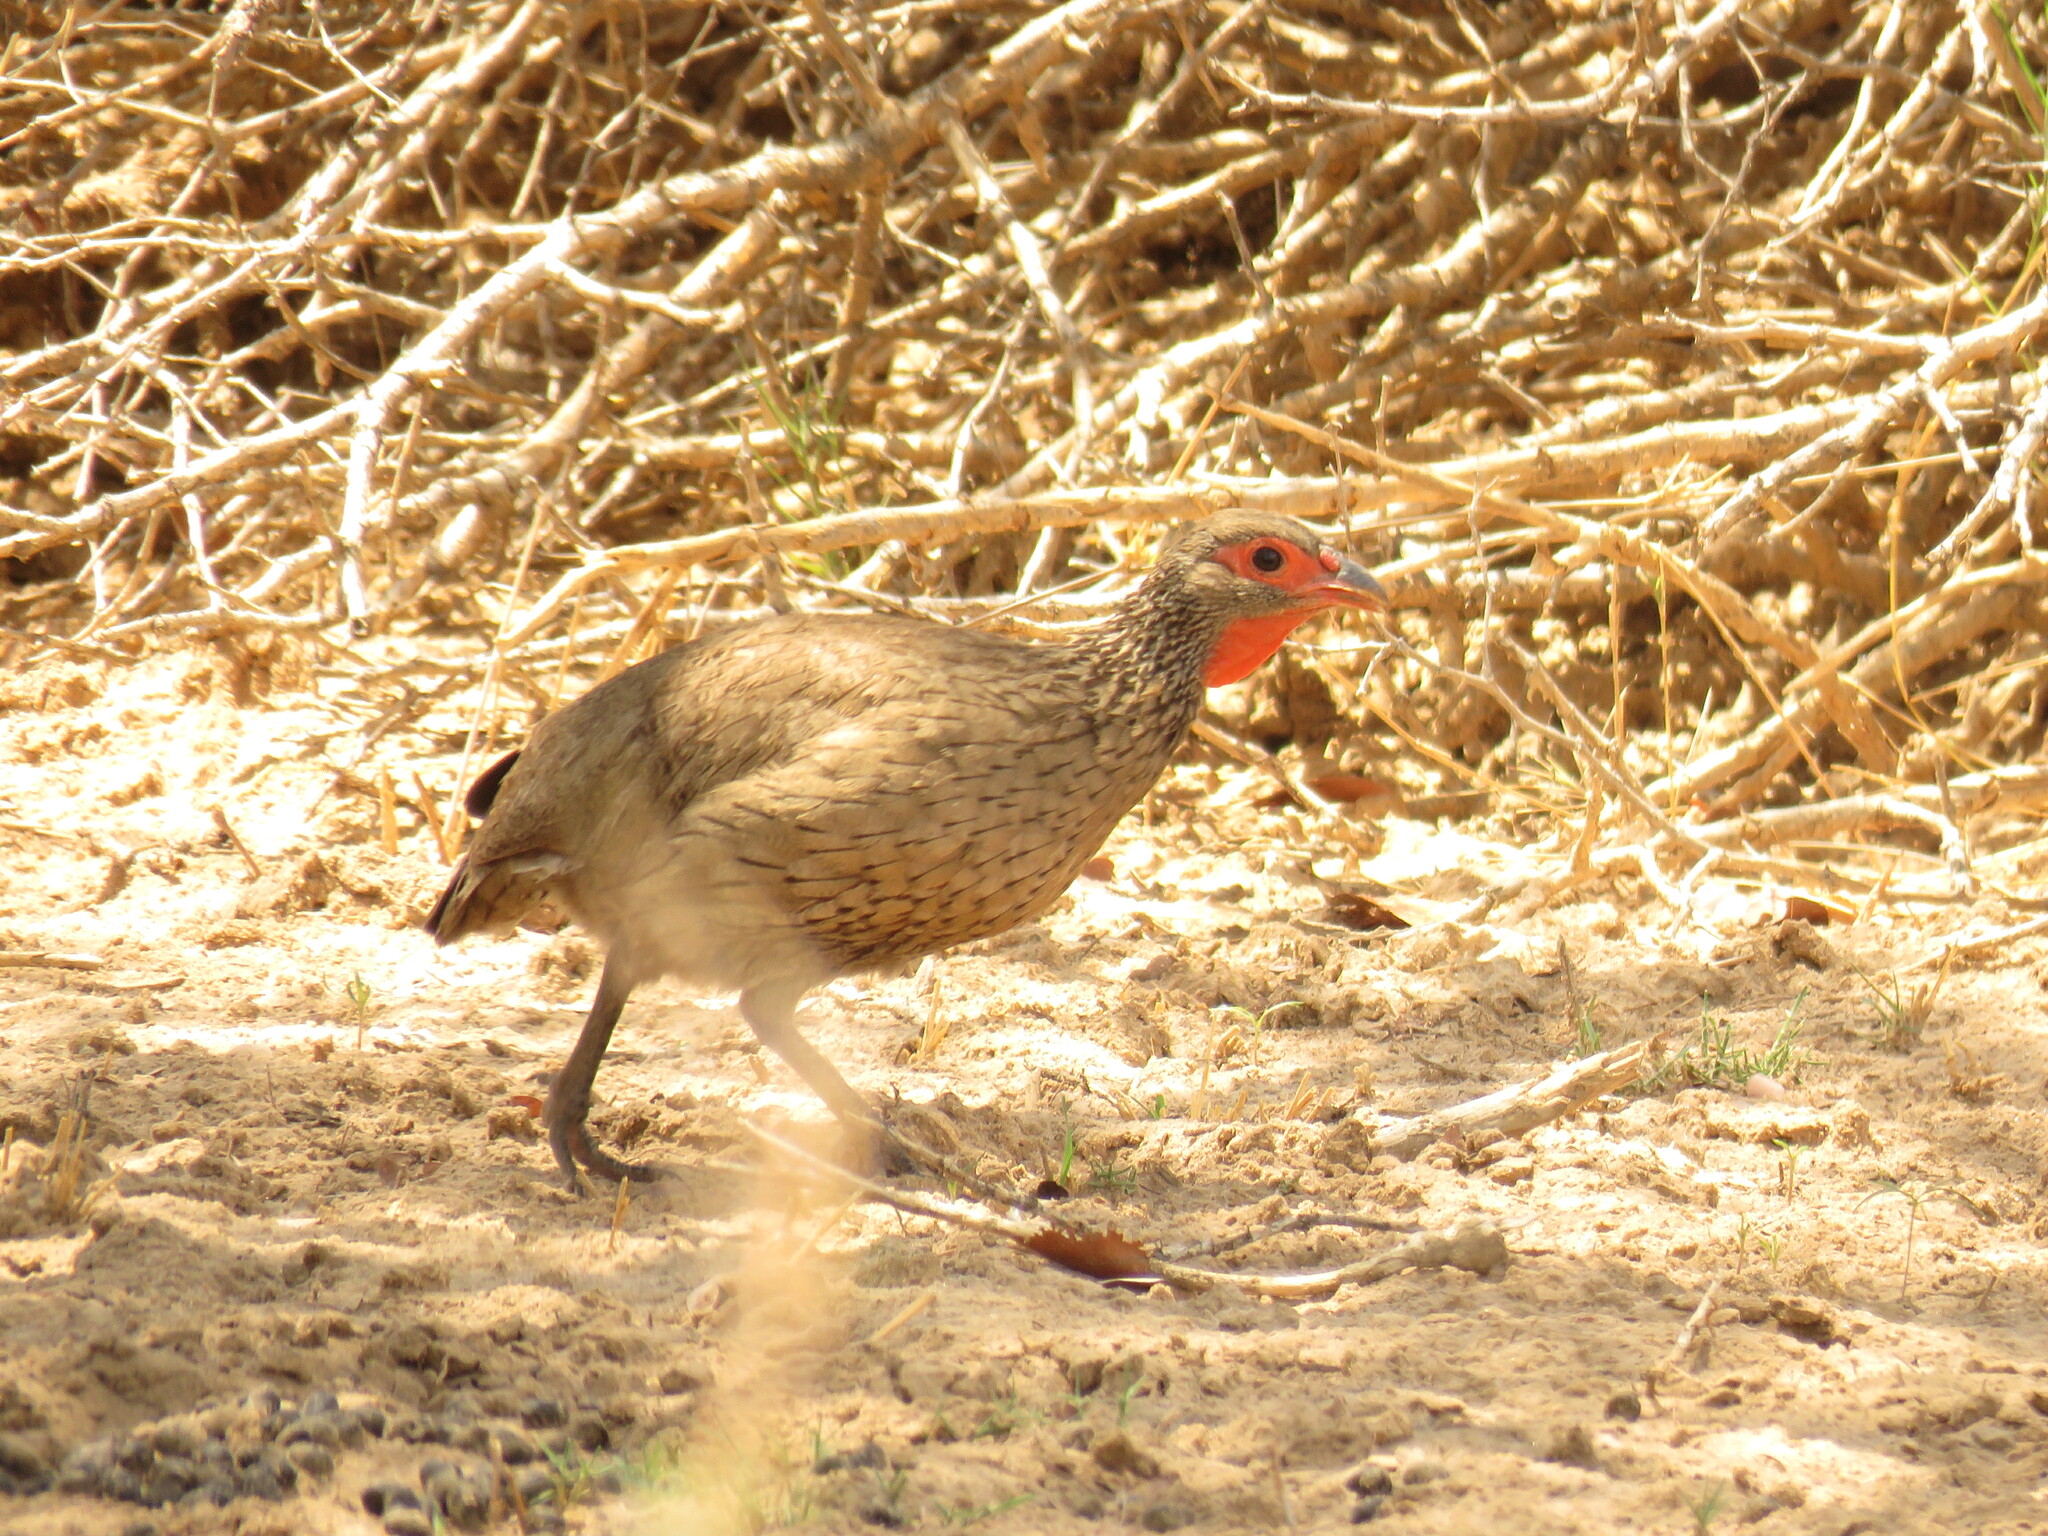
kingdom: Animalia
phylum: Chordata
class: Aves
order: Galliformes
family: Phasianidae
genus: Pternistis
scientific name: Pternistis swainsonii
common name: Swainson's spurfowl
